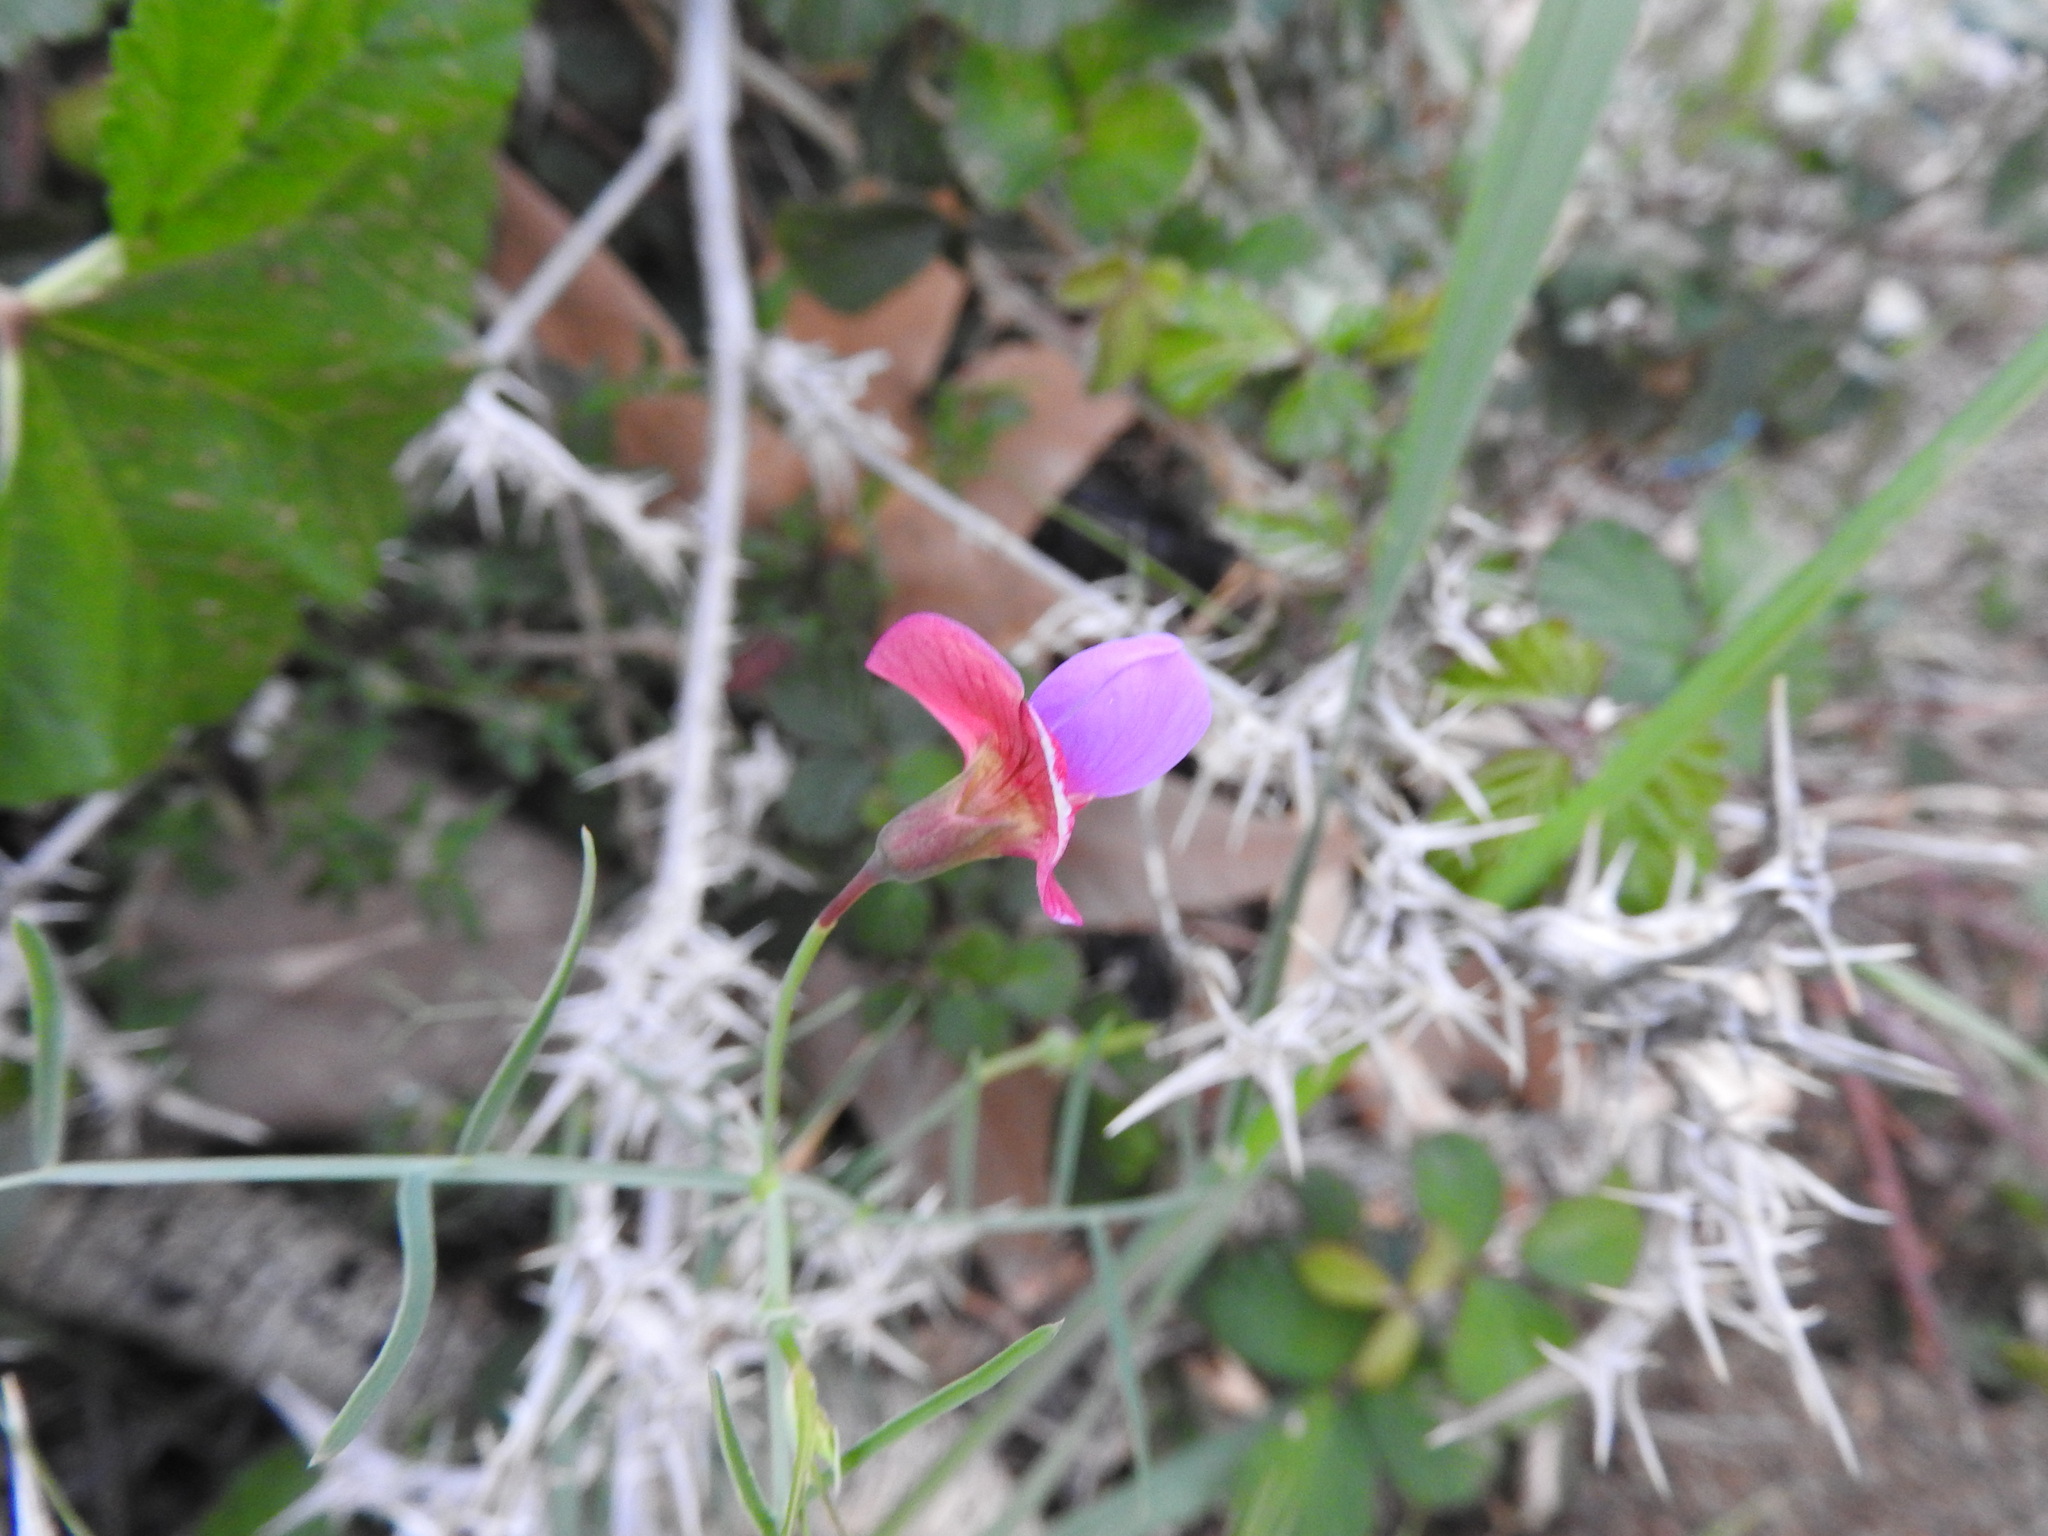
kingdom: Plantae
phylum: Tracheophyta
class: Magnoliopsida
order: Fabales
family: Fabaceae
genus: Lathyrus
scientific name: Lathyrus clymenum
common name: Spanish vetchling
